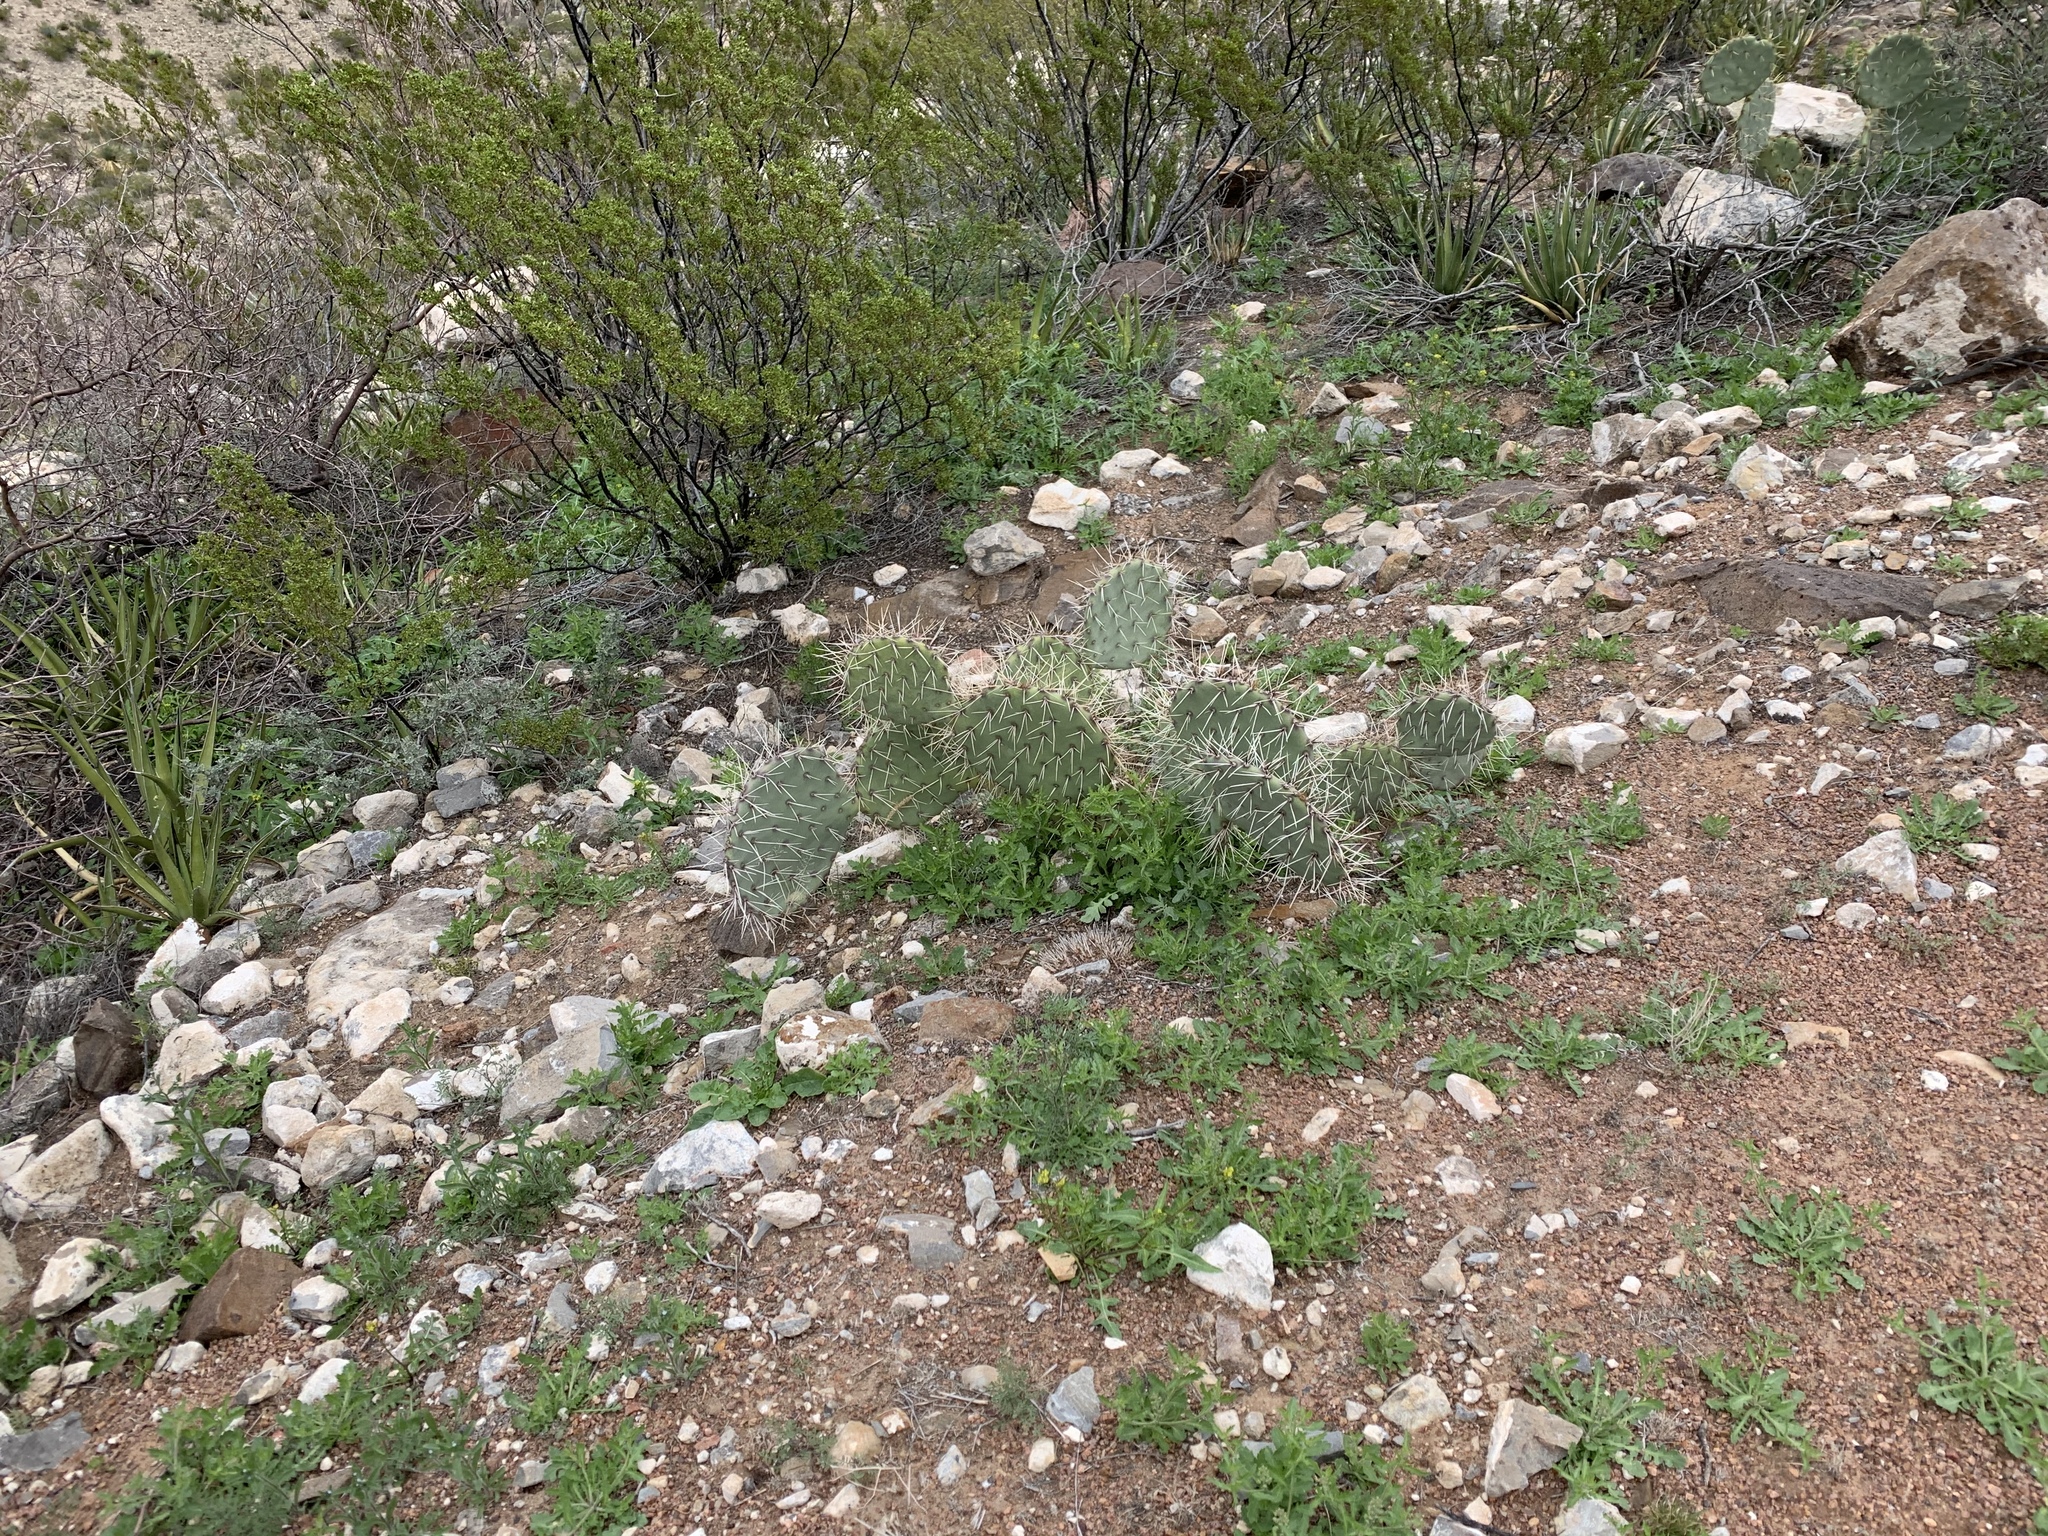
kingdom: Plantae
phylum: Tracheophyta
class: Magnoliopsida
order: Caryophyllales
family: Cactaceae
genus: Opuntia
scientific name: Opuntia phaeacantha
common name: New mexico prickly-pear
